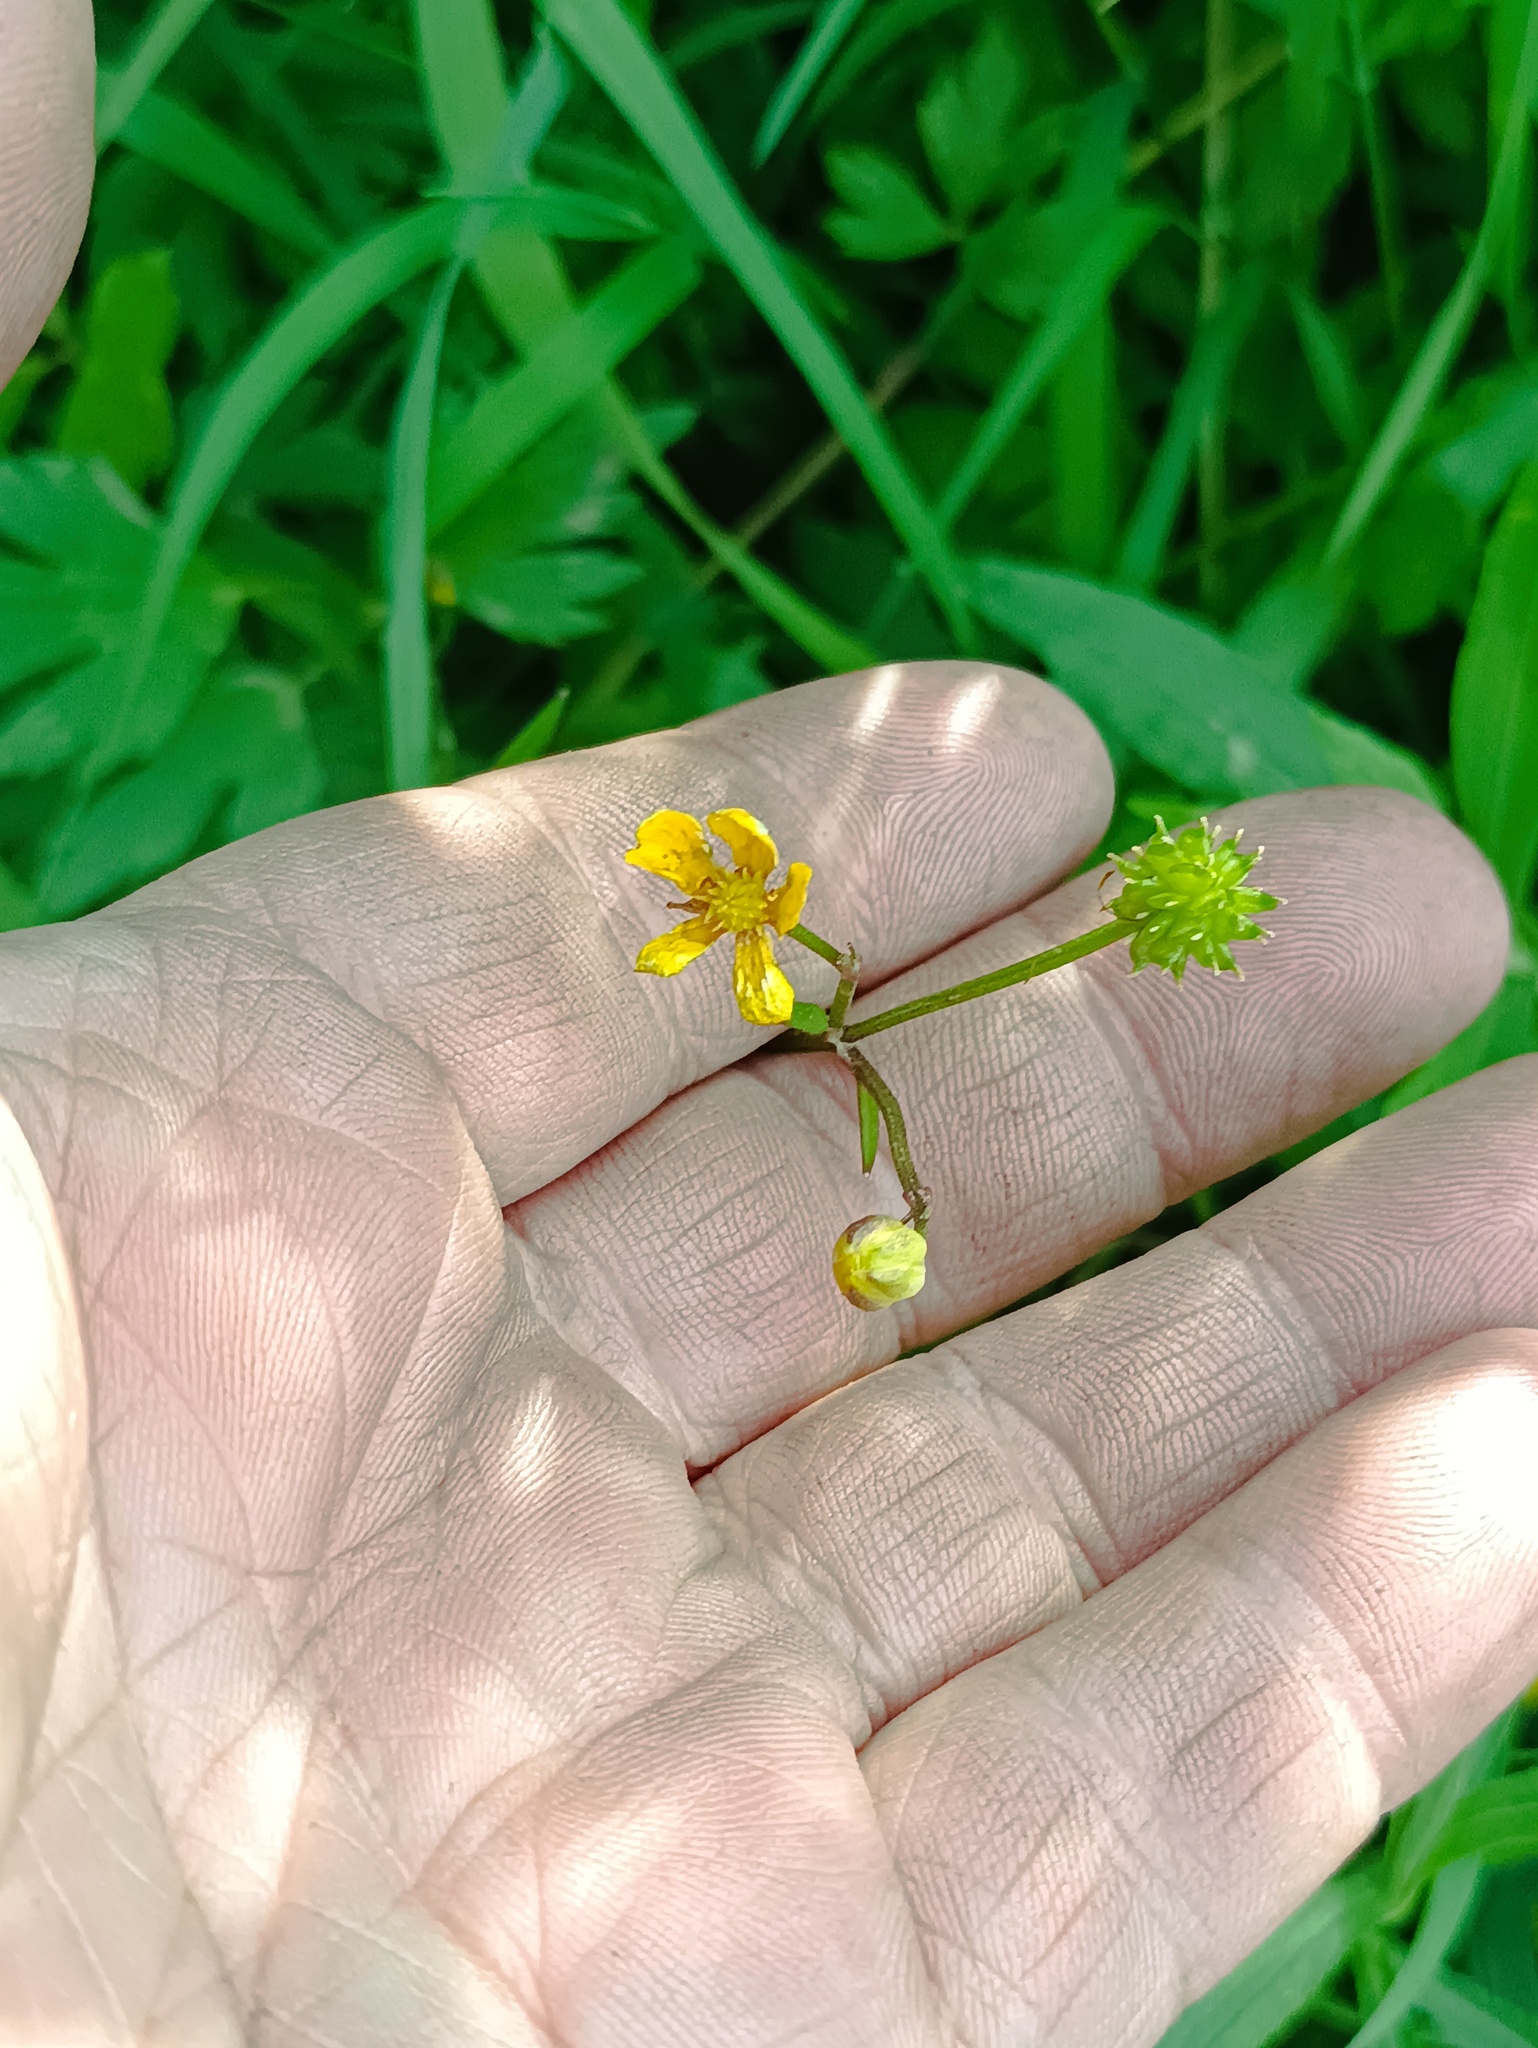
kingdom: Plantae
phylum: Tracheophyta
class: Magnoliopsida
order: Ranunculales
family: Ranunculaceae
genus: Ranunculus
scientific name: Ranunculus repens
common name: Creeping buttercup
